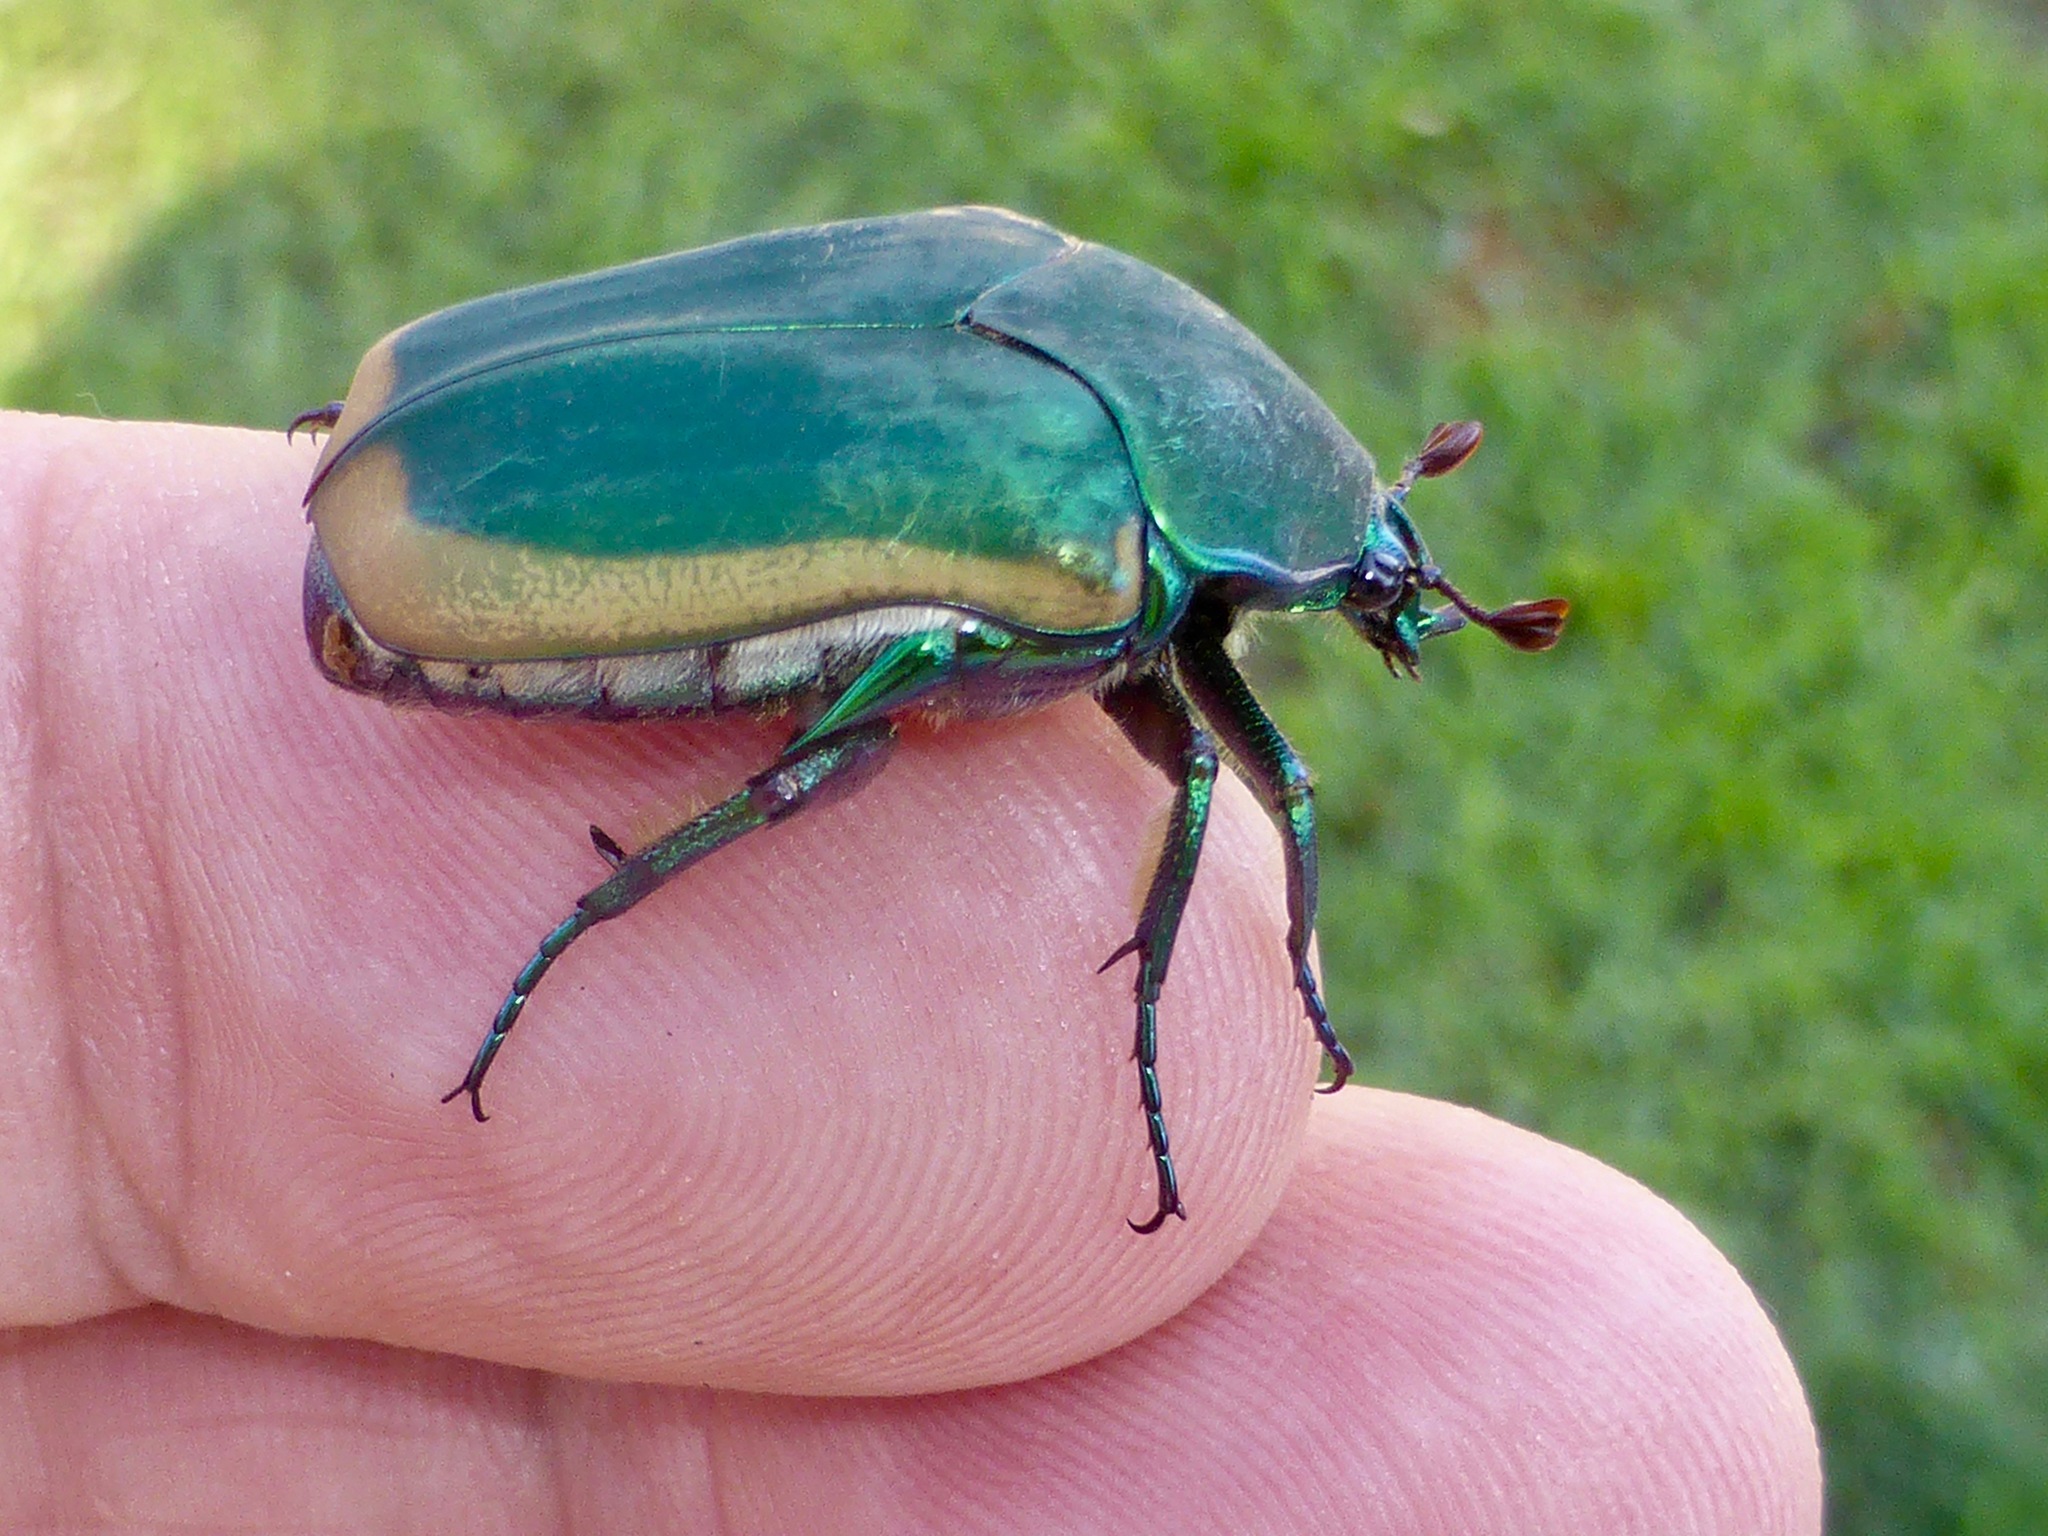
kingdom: Animalia
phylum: Arthropoda
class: Insecta
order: Coleoptera
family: Scarabaeidae
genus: Cotinis
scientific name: Cotinis mutabilis
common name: Figeater beetle
